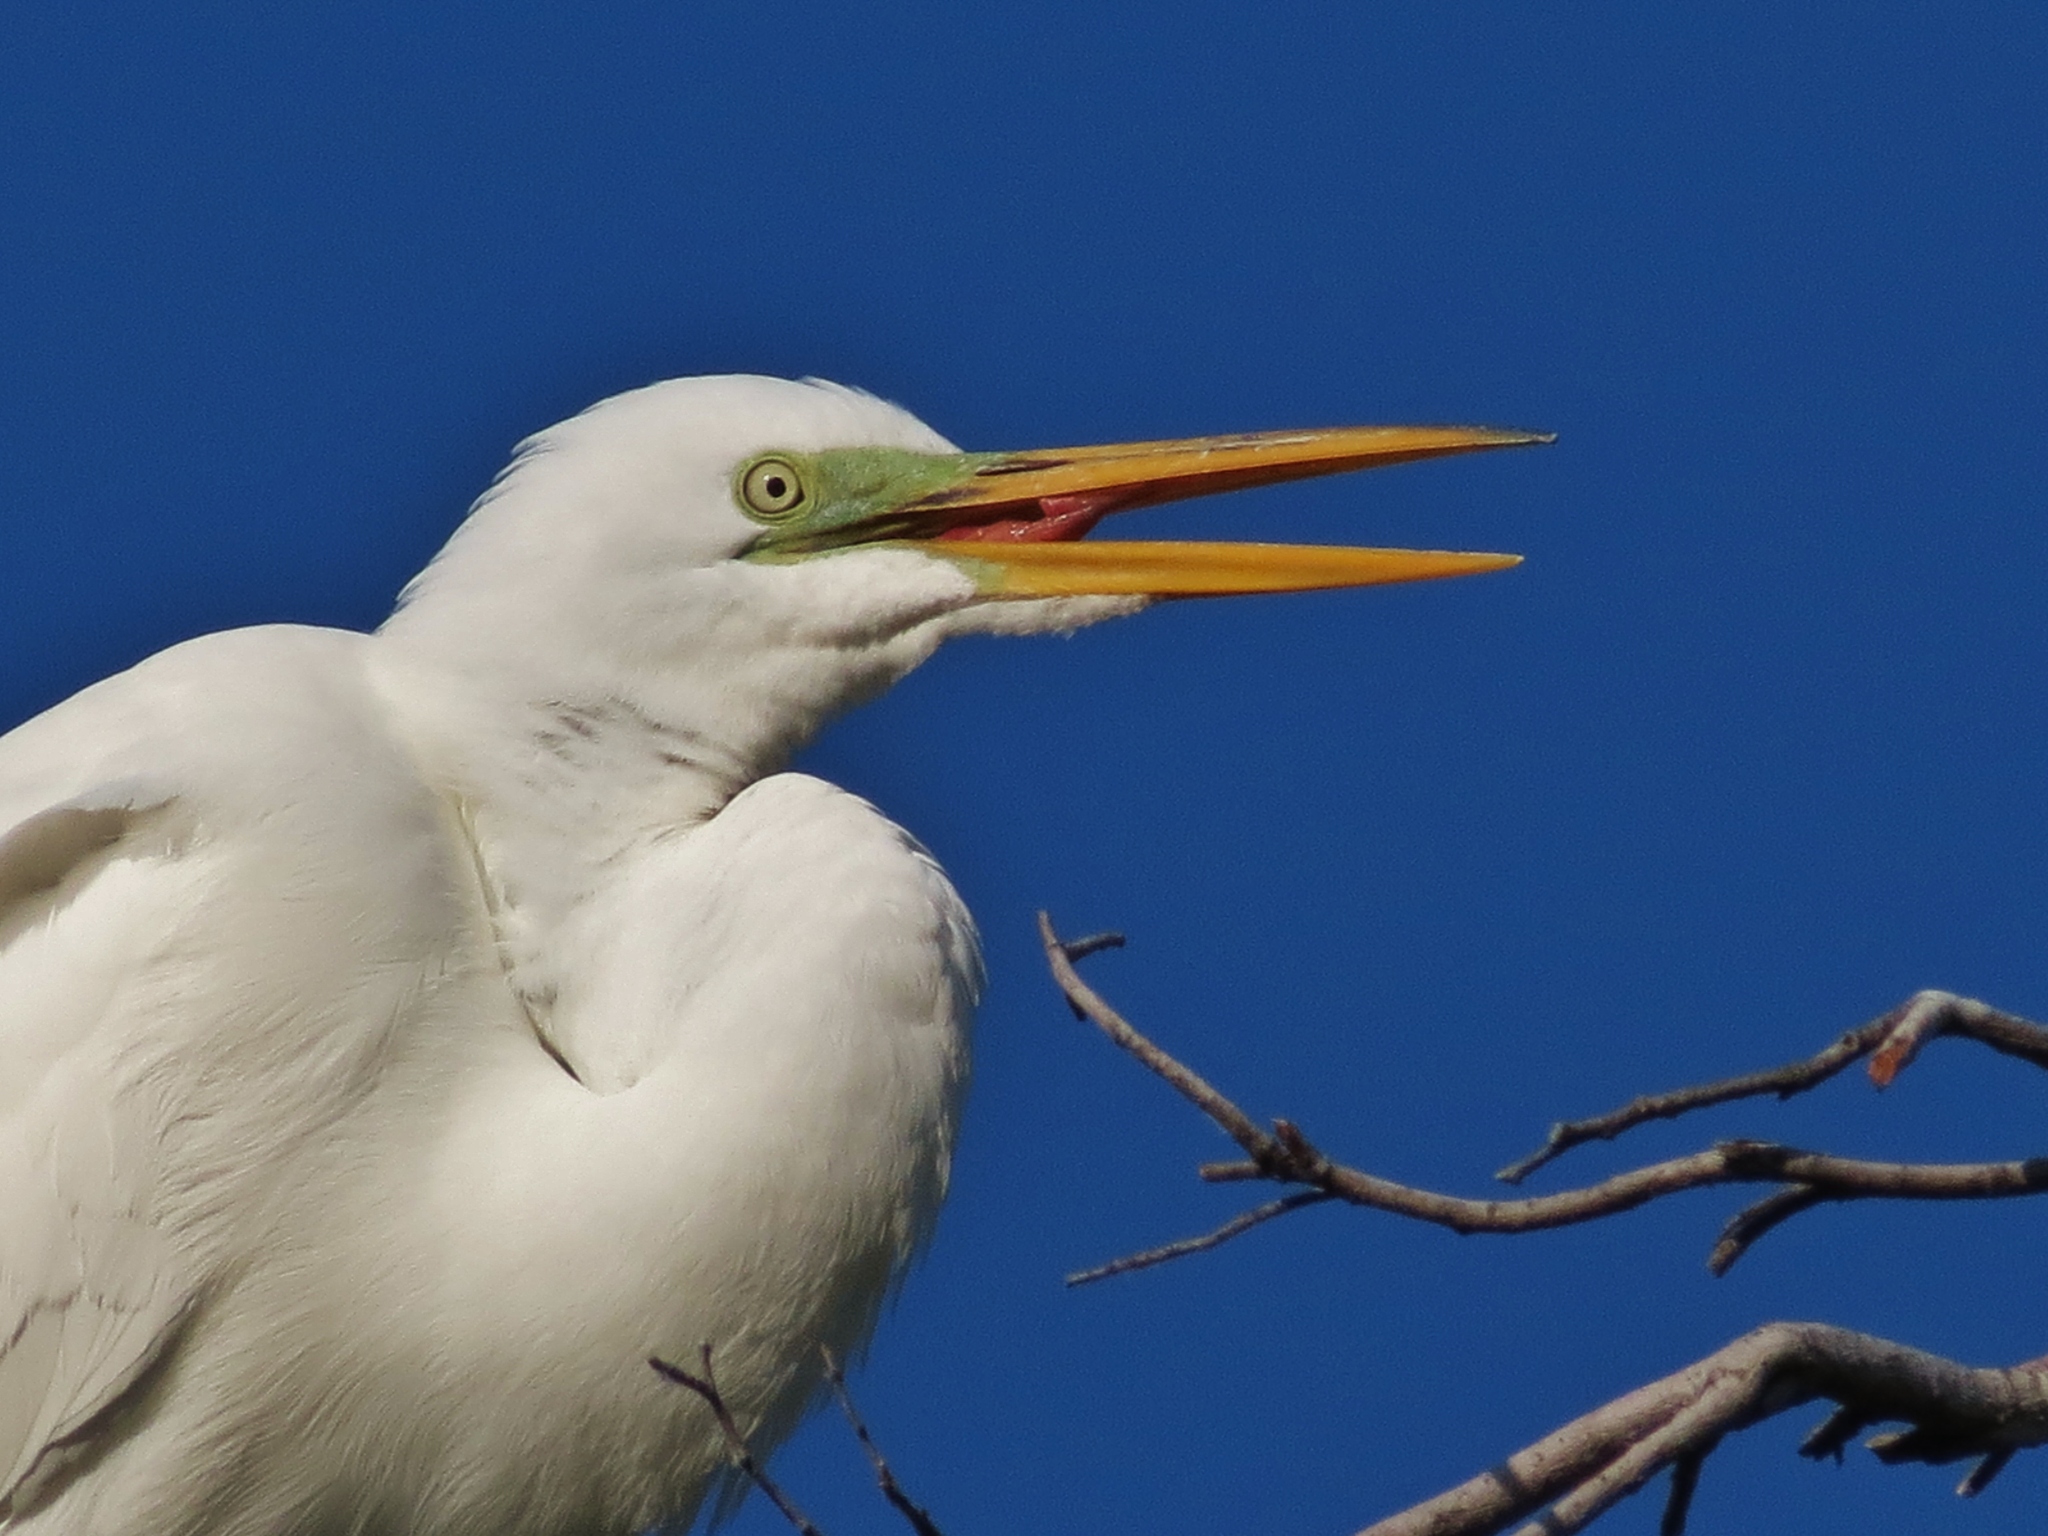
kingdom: Animalia
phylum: Chordata
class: Aves
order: Pelecaniformes
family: Ardeidae
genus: Ardea
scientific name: Ardea alba
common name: Great egret
